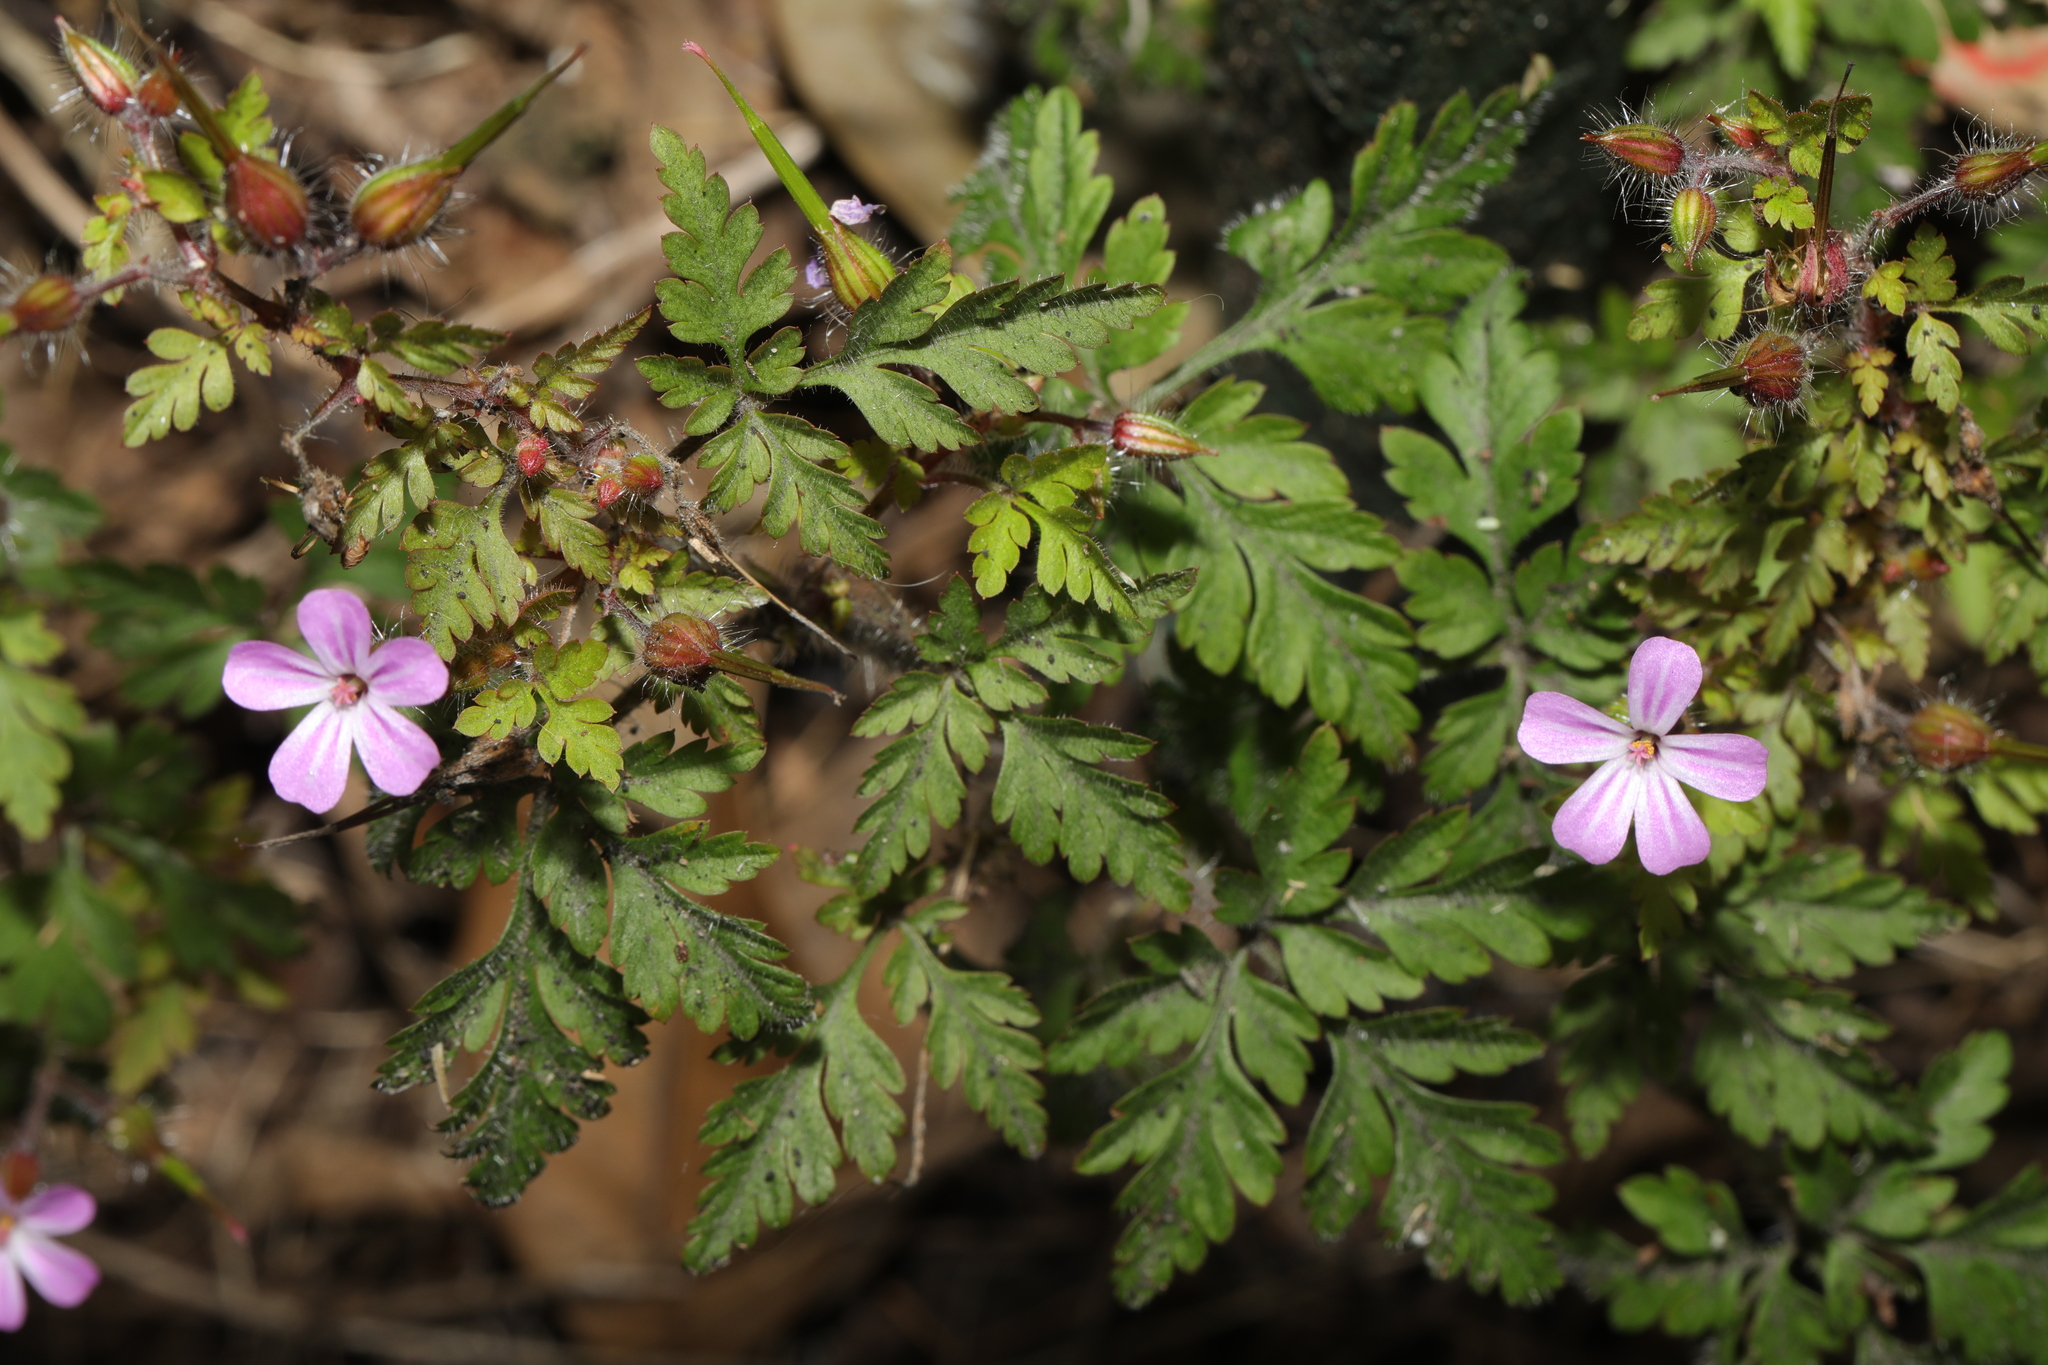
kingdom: Plantae
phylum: Tracheophyta
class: Magnoliopsida
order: Geraniales
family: Geraniaceae
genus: Geranium
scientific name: Geranium robertianum
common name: Herb-robert
